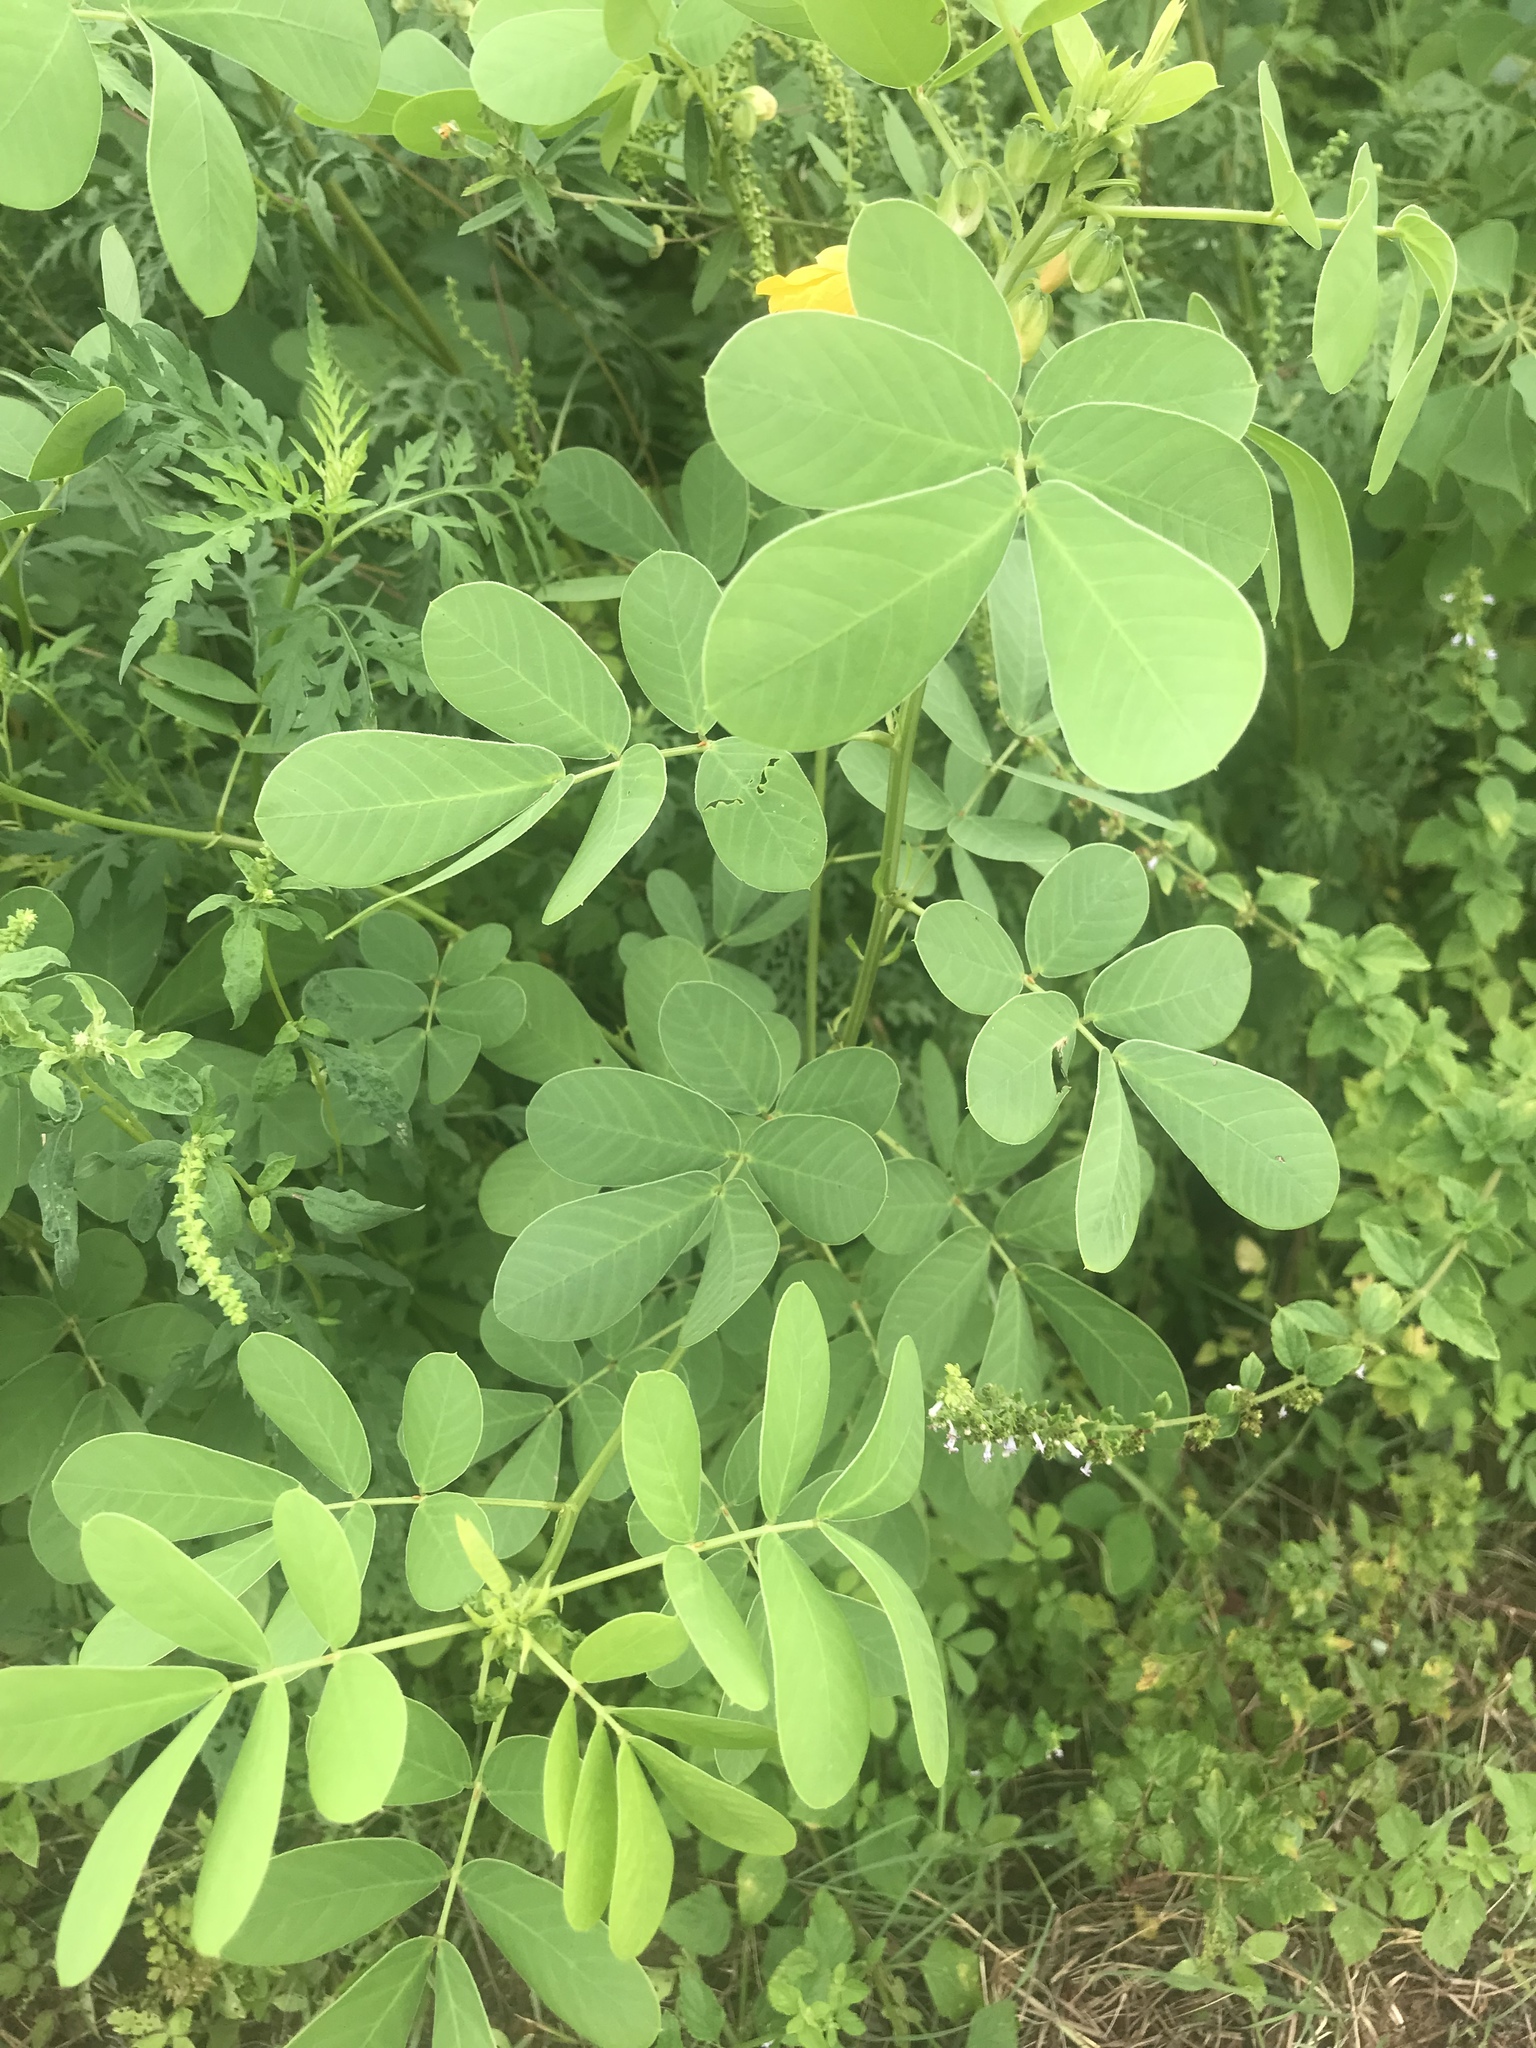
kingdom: Plantae
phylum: Tracheophyta
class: Magnoliopsida
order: Fabales
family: Fabaceae
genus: Senna
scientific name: Senna obtusifolia
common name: Java-bean
